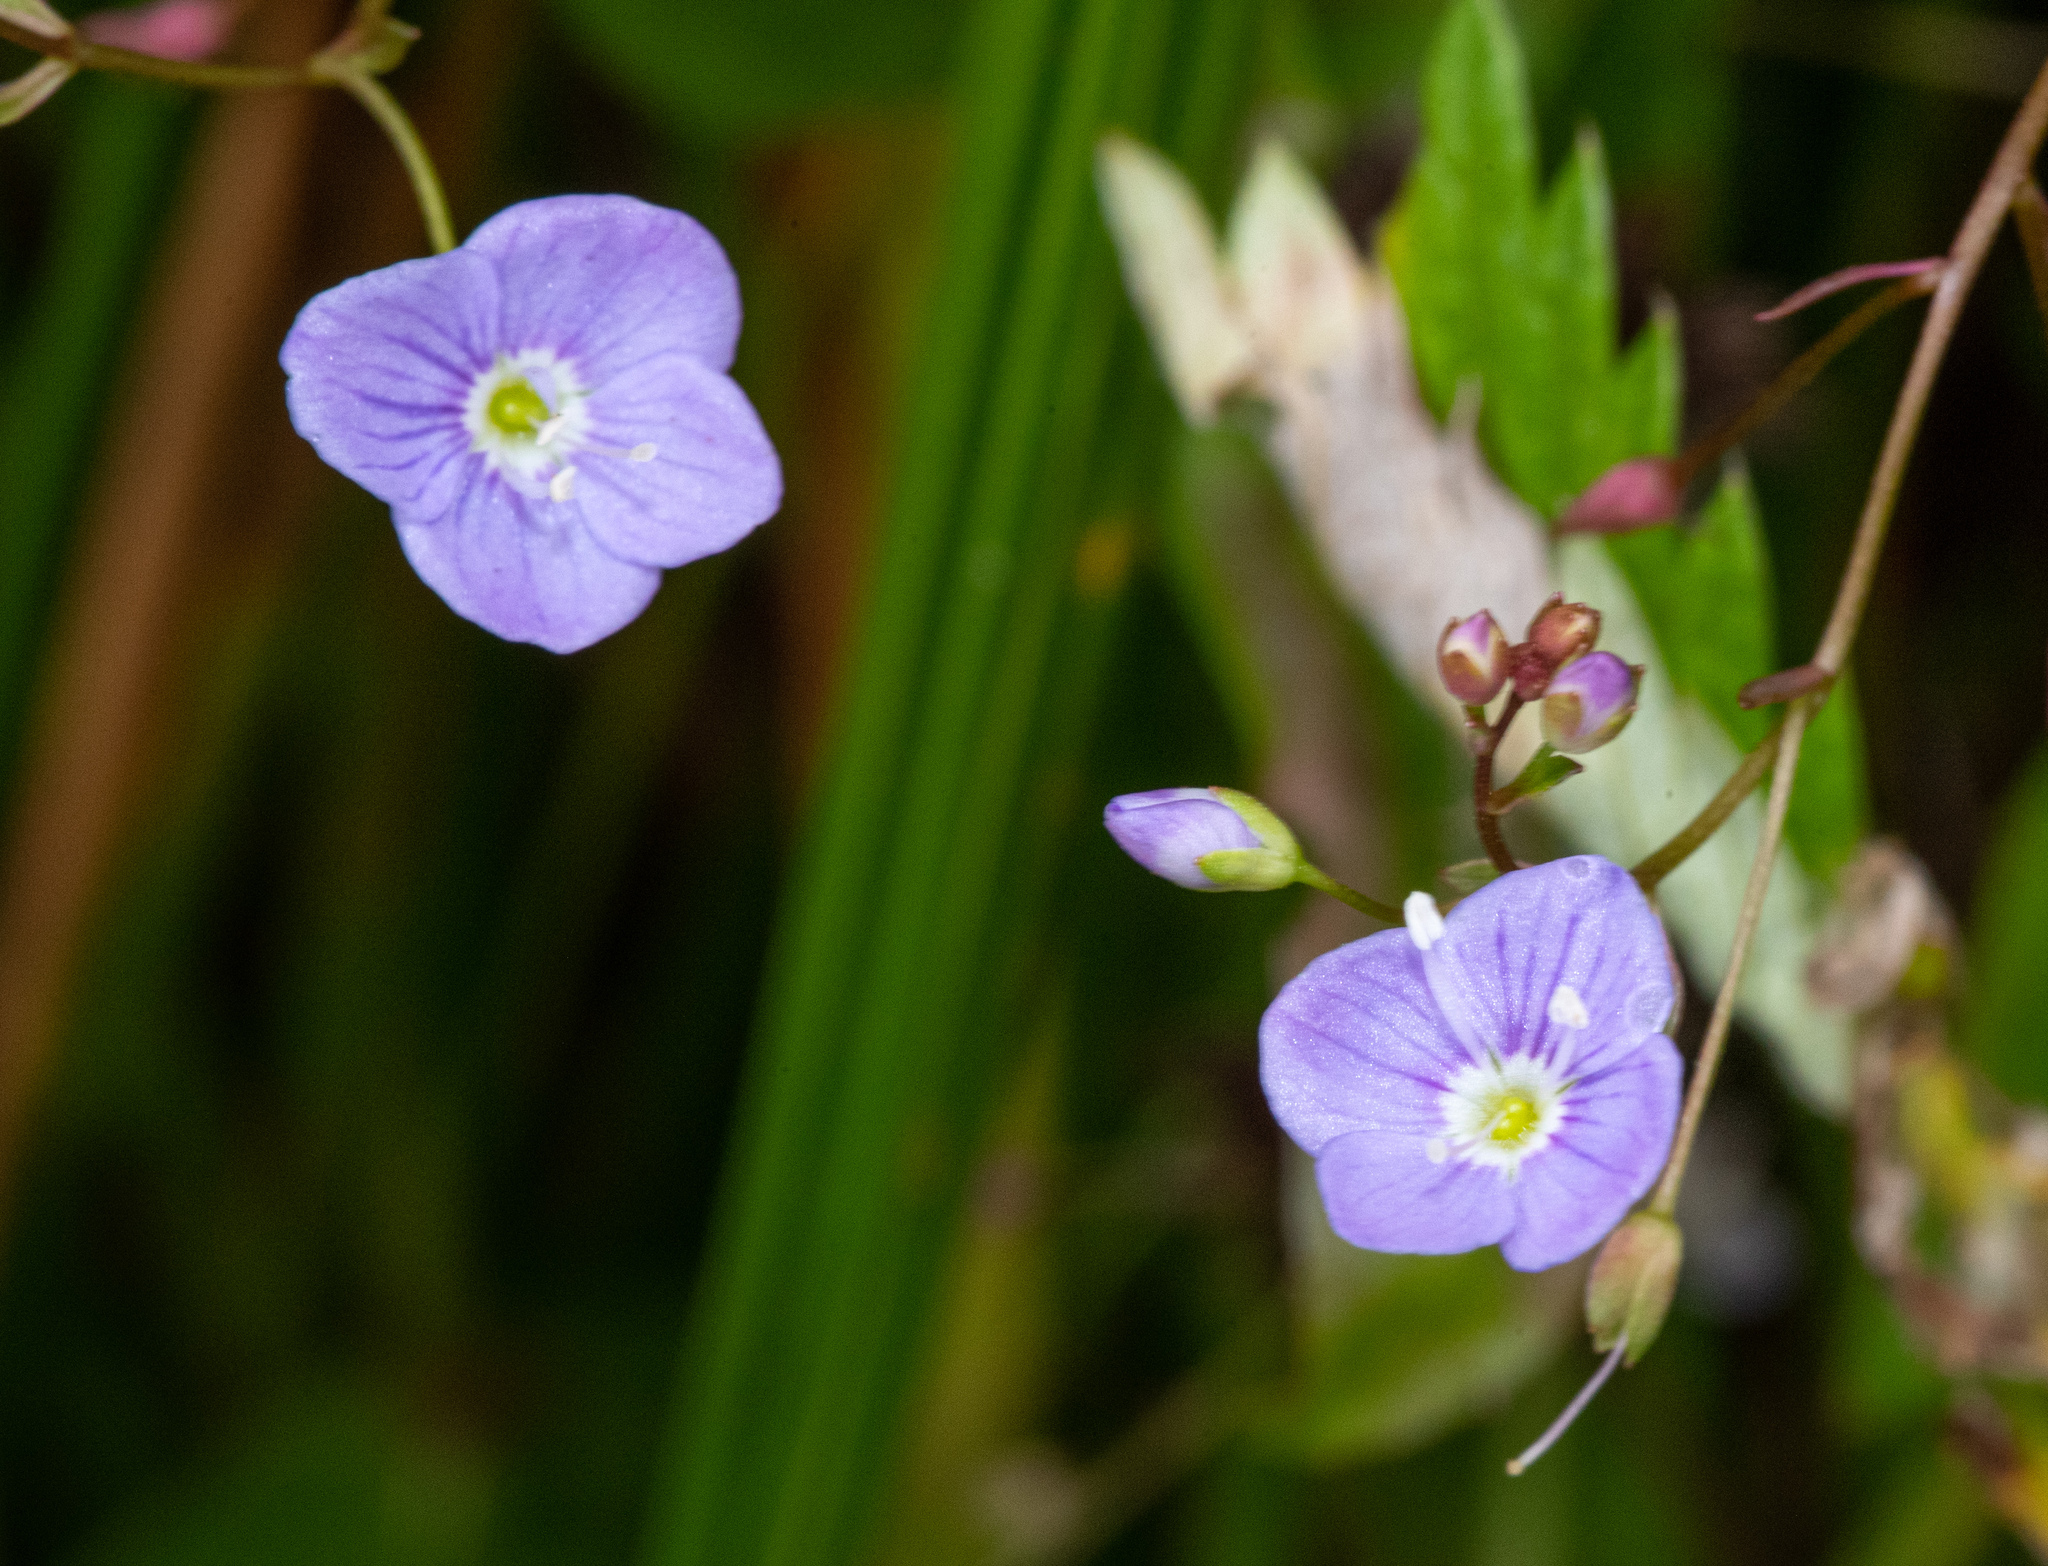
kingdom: Plantae
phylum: Tracheophyta
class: Magnoliopsida
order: Lamiales
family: Plantaginaceae
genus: Veronica
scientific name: Veronica scutellata
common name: Marsh speedwell
